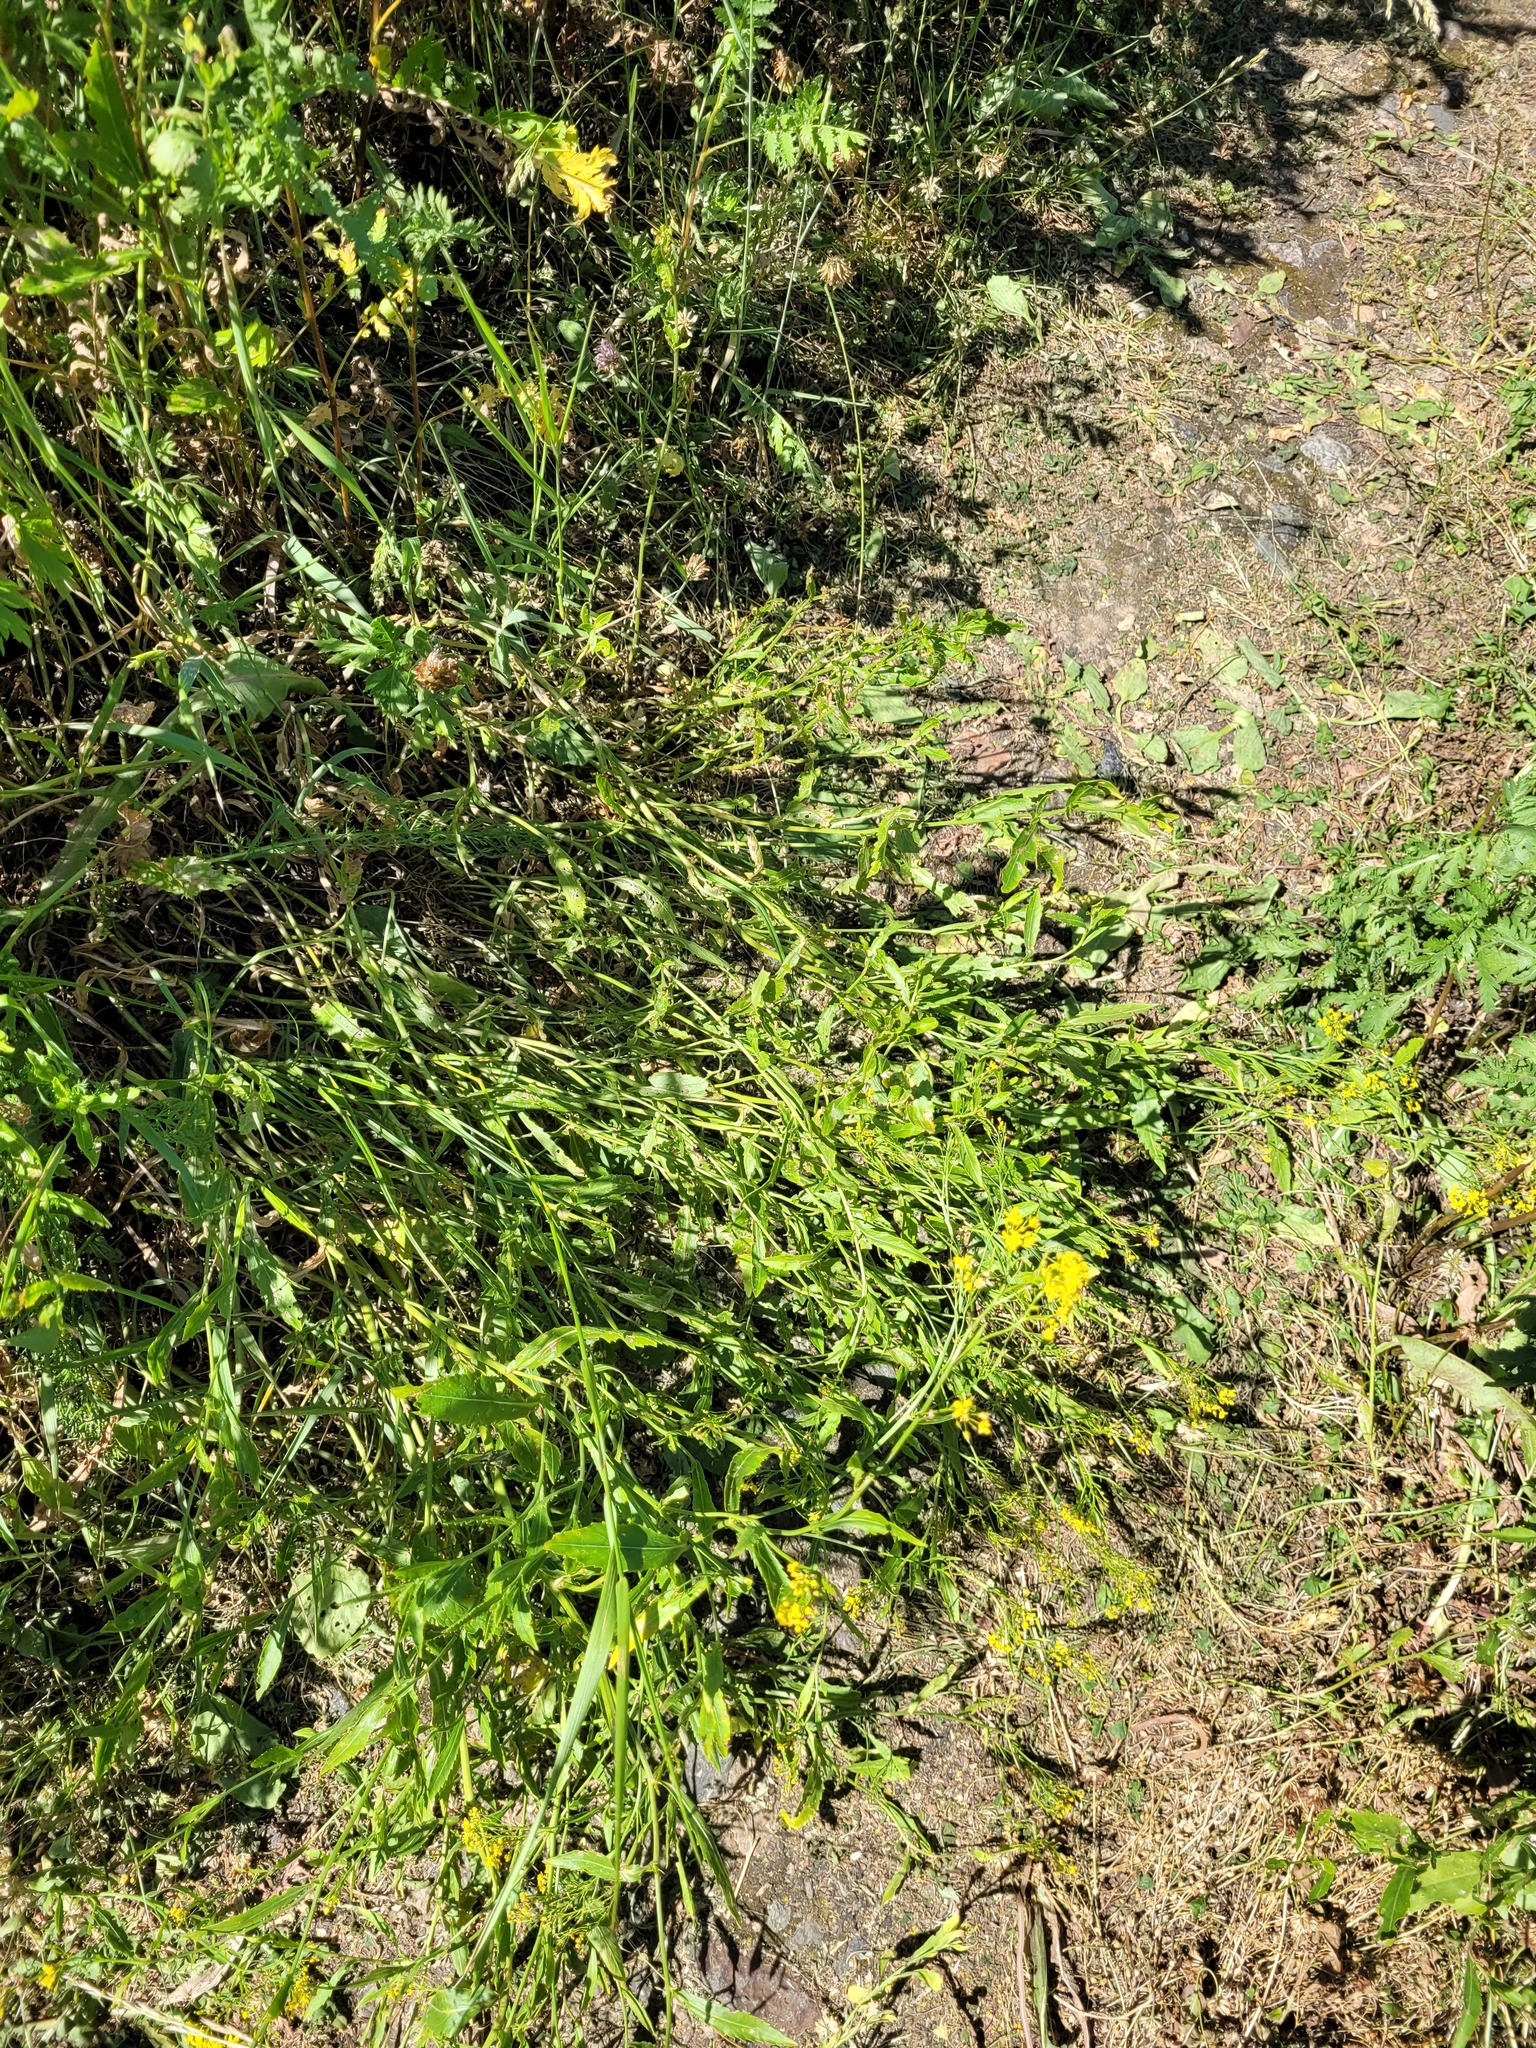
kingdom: Plantae
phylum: Tracheophyta
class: Magnoliopsida
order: Brassicales
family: Brassicaceae
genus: Rorippa
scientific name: Rorippa austriaca
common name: Austrian yellow-cress
